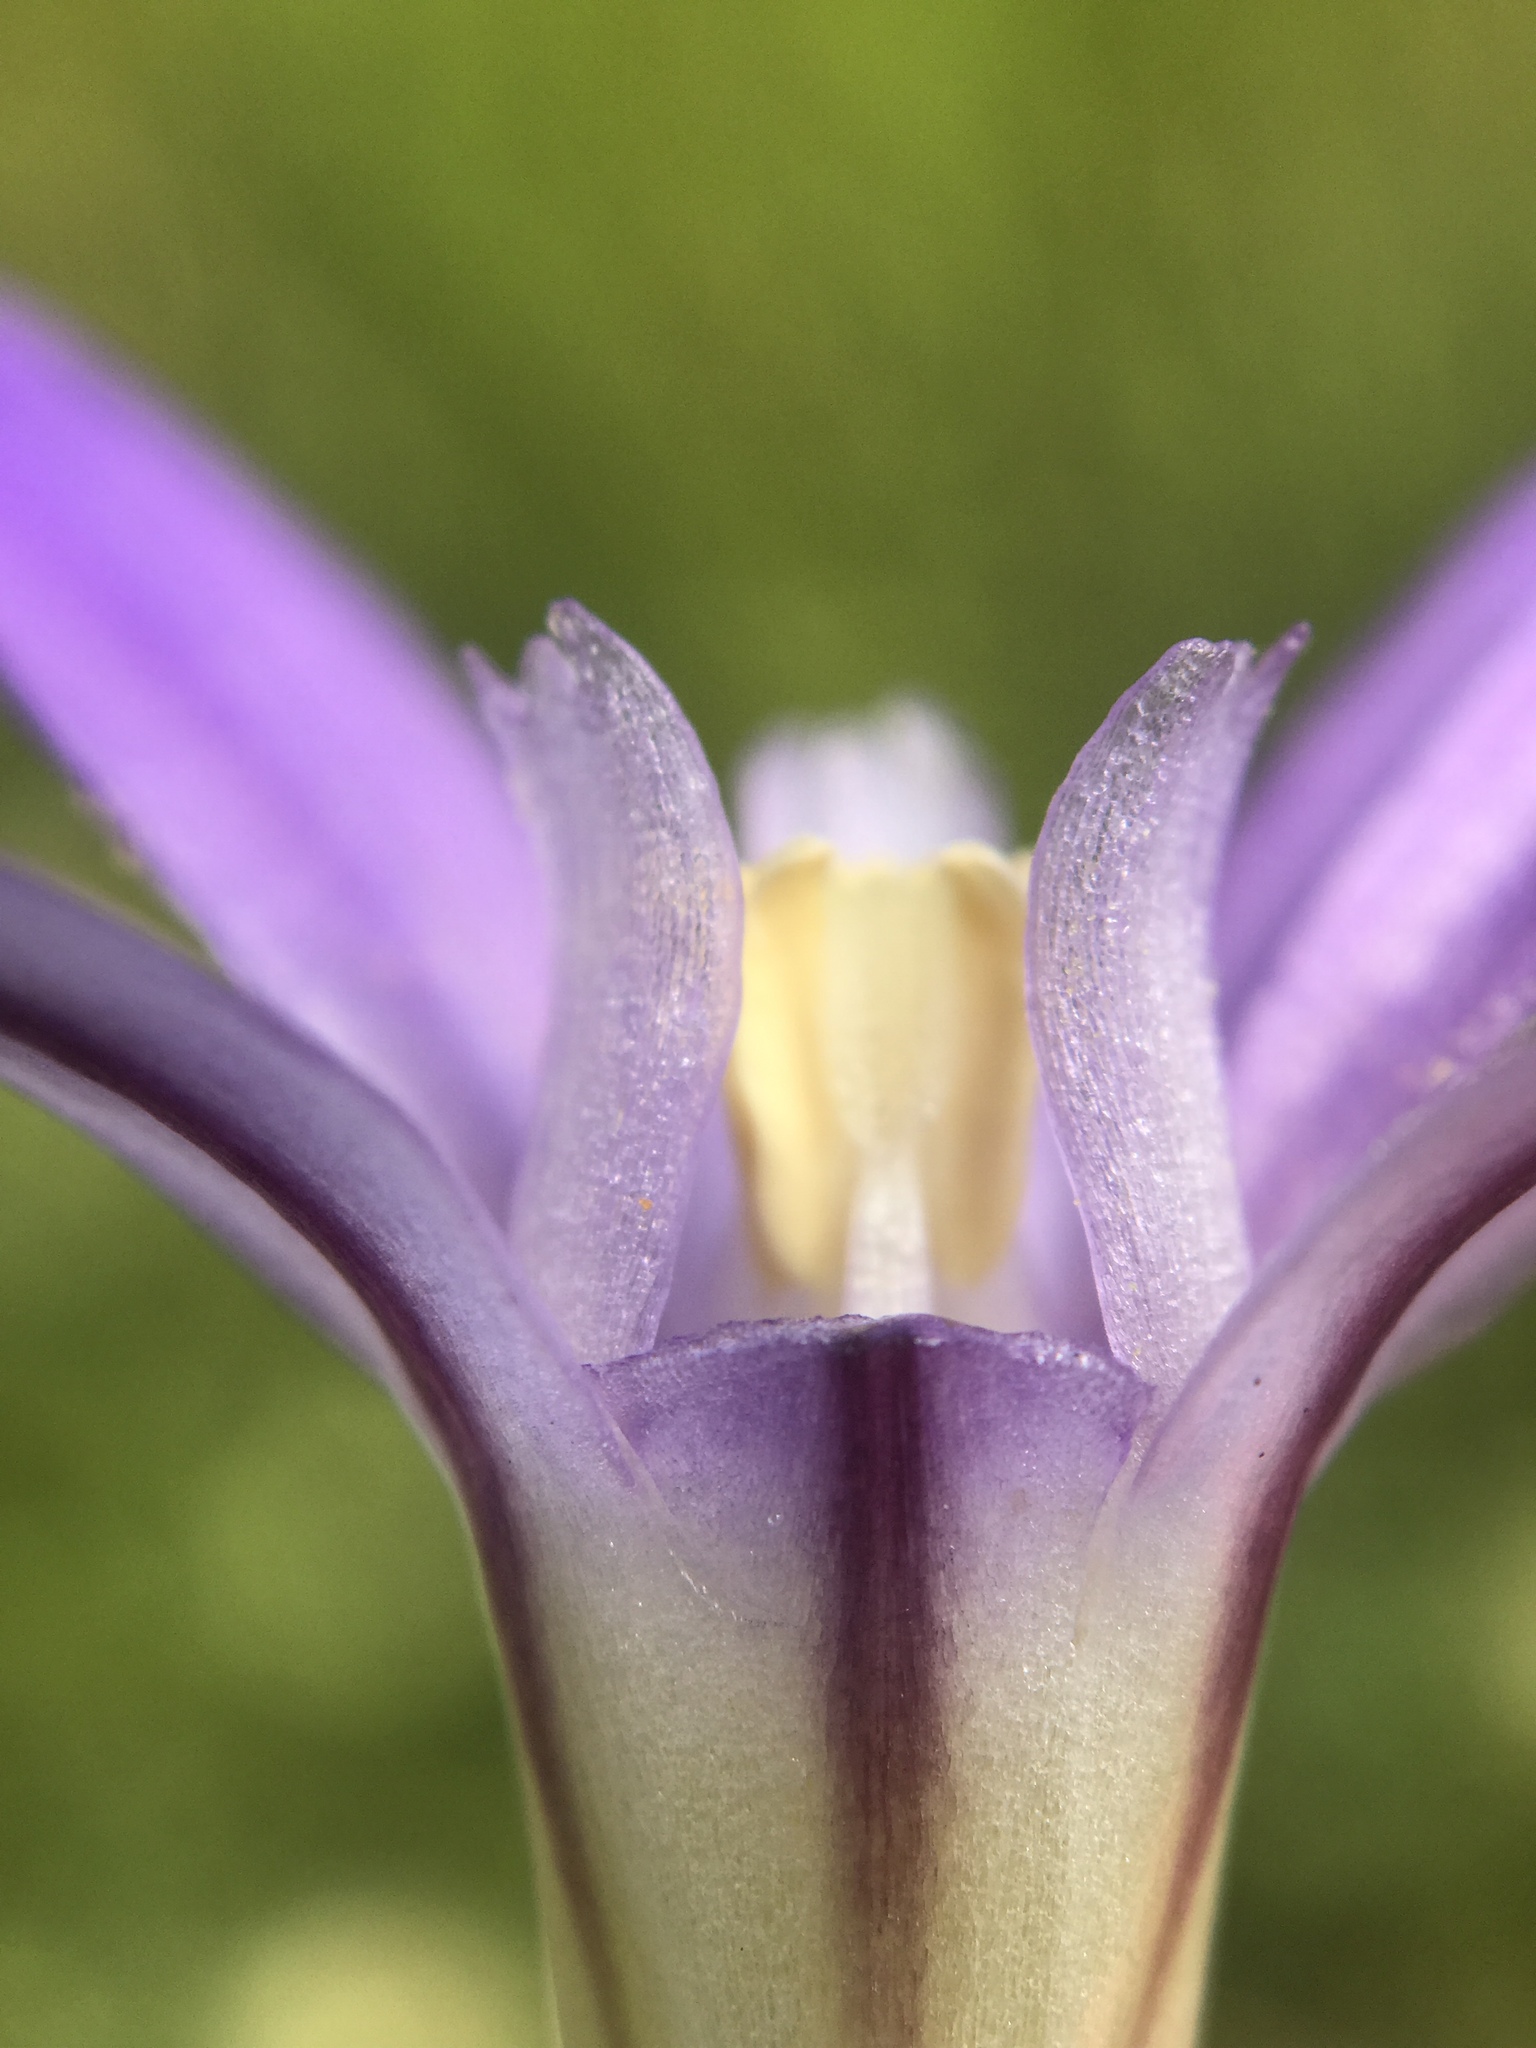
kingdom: Plantae
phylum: Tracheophyta
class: Liliopsida
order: Asparagales
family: Asparagaceae
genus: Brodiaea
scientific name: Brodiaea jolonensis
